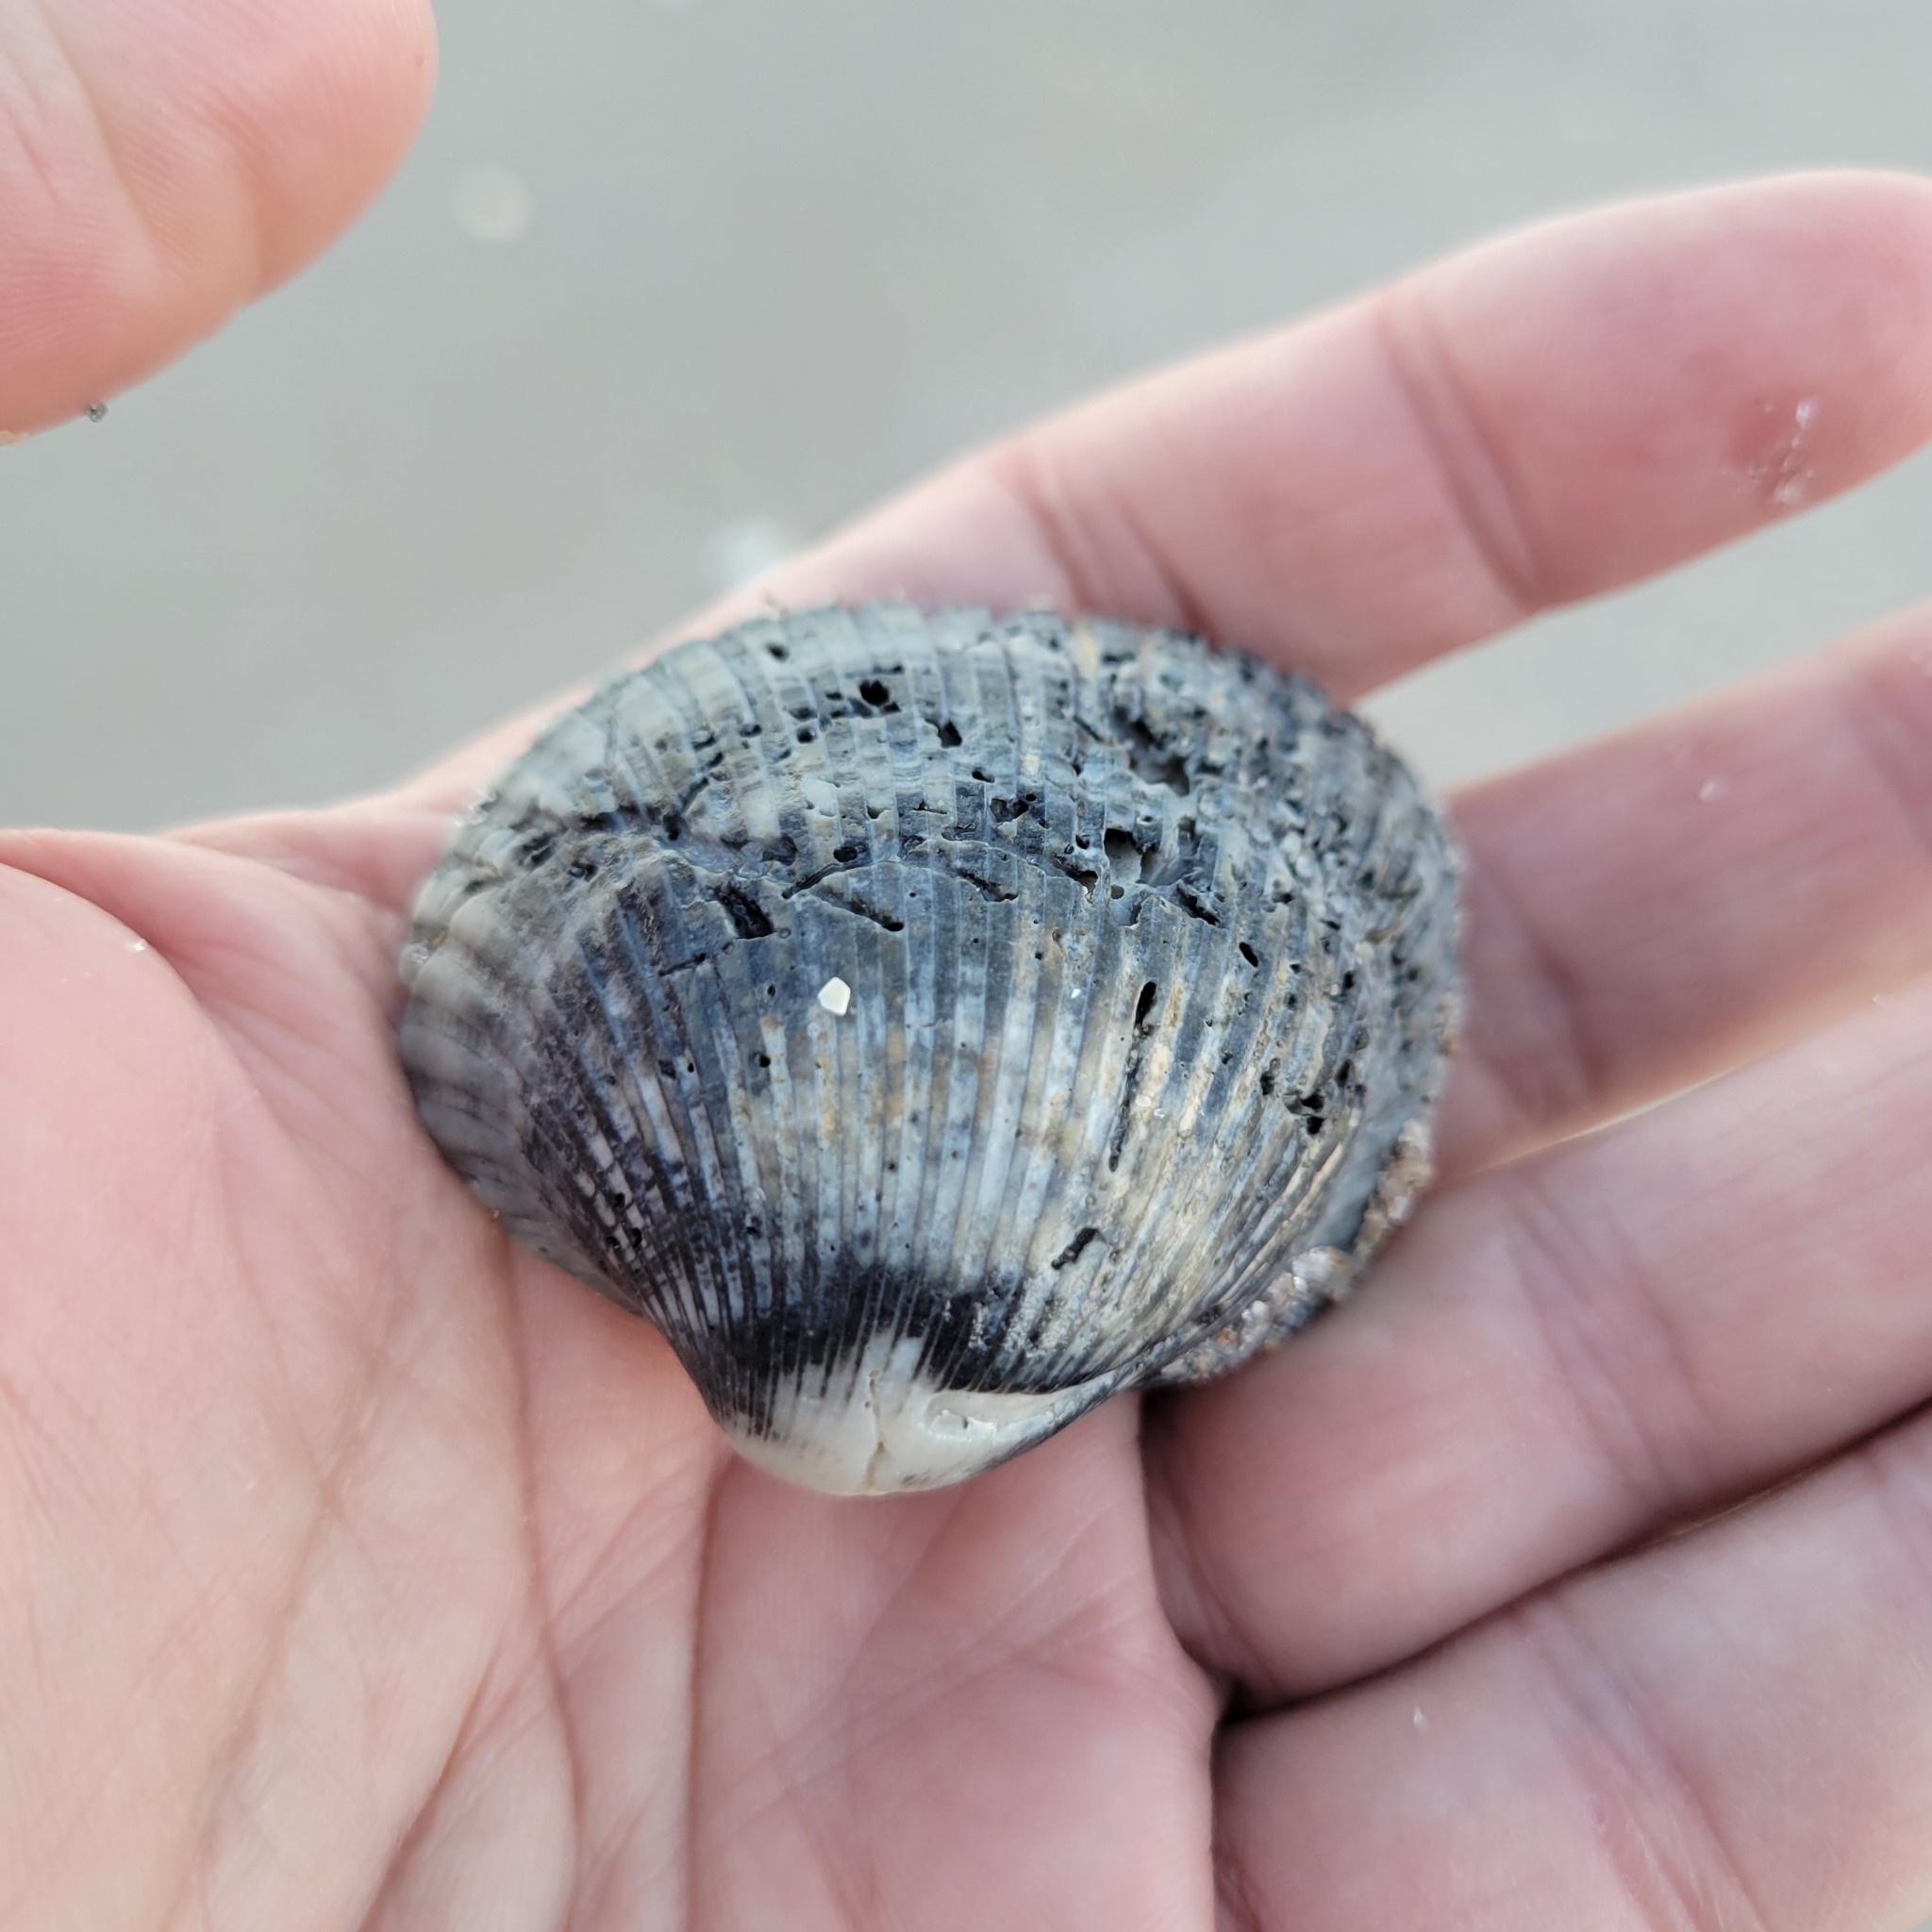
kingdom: Animalia
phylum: Mollusca
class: Bivalvia
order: Arcida
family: Arcidae
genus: Lunarca
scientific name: Lunarca ovalis
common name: Blood ark
